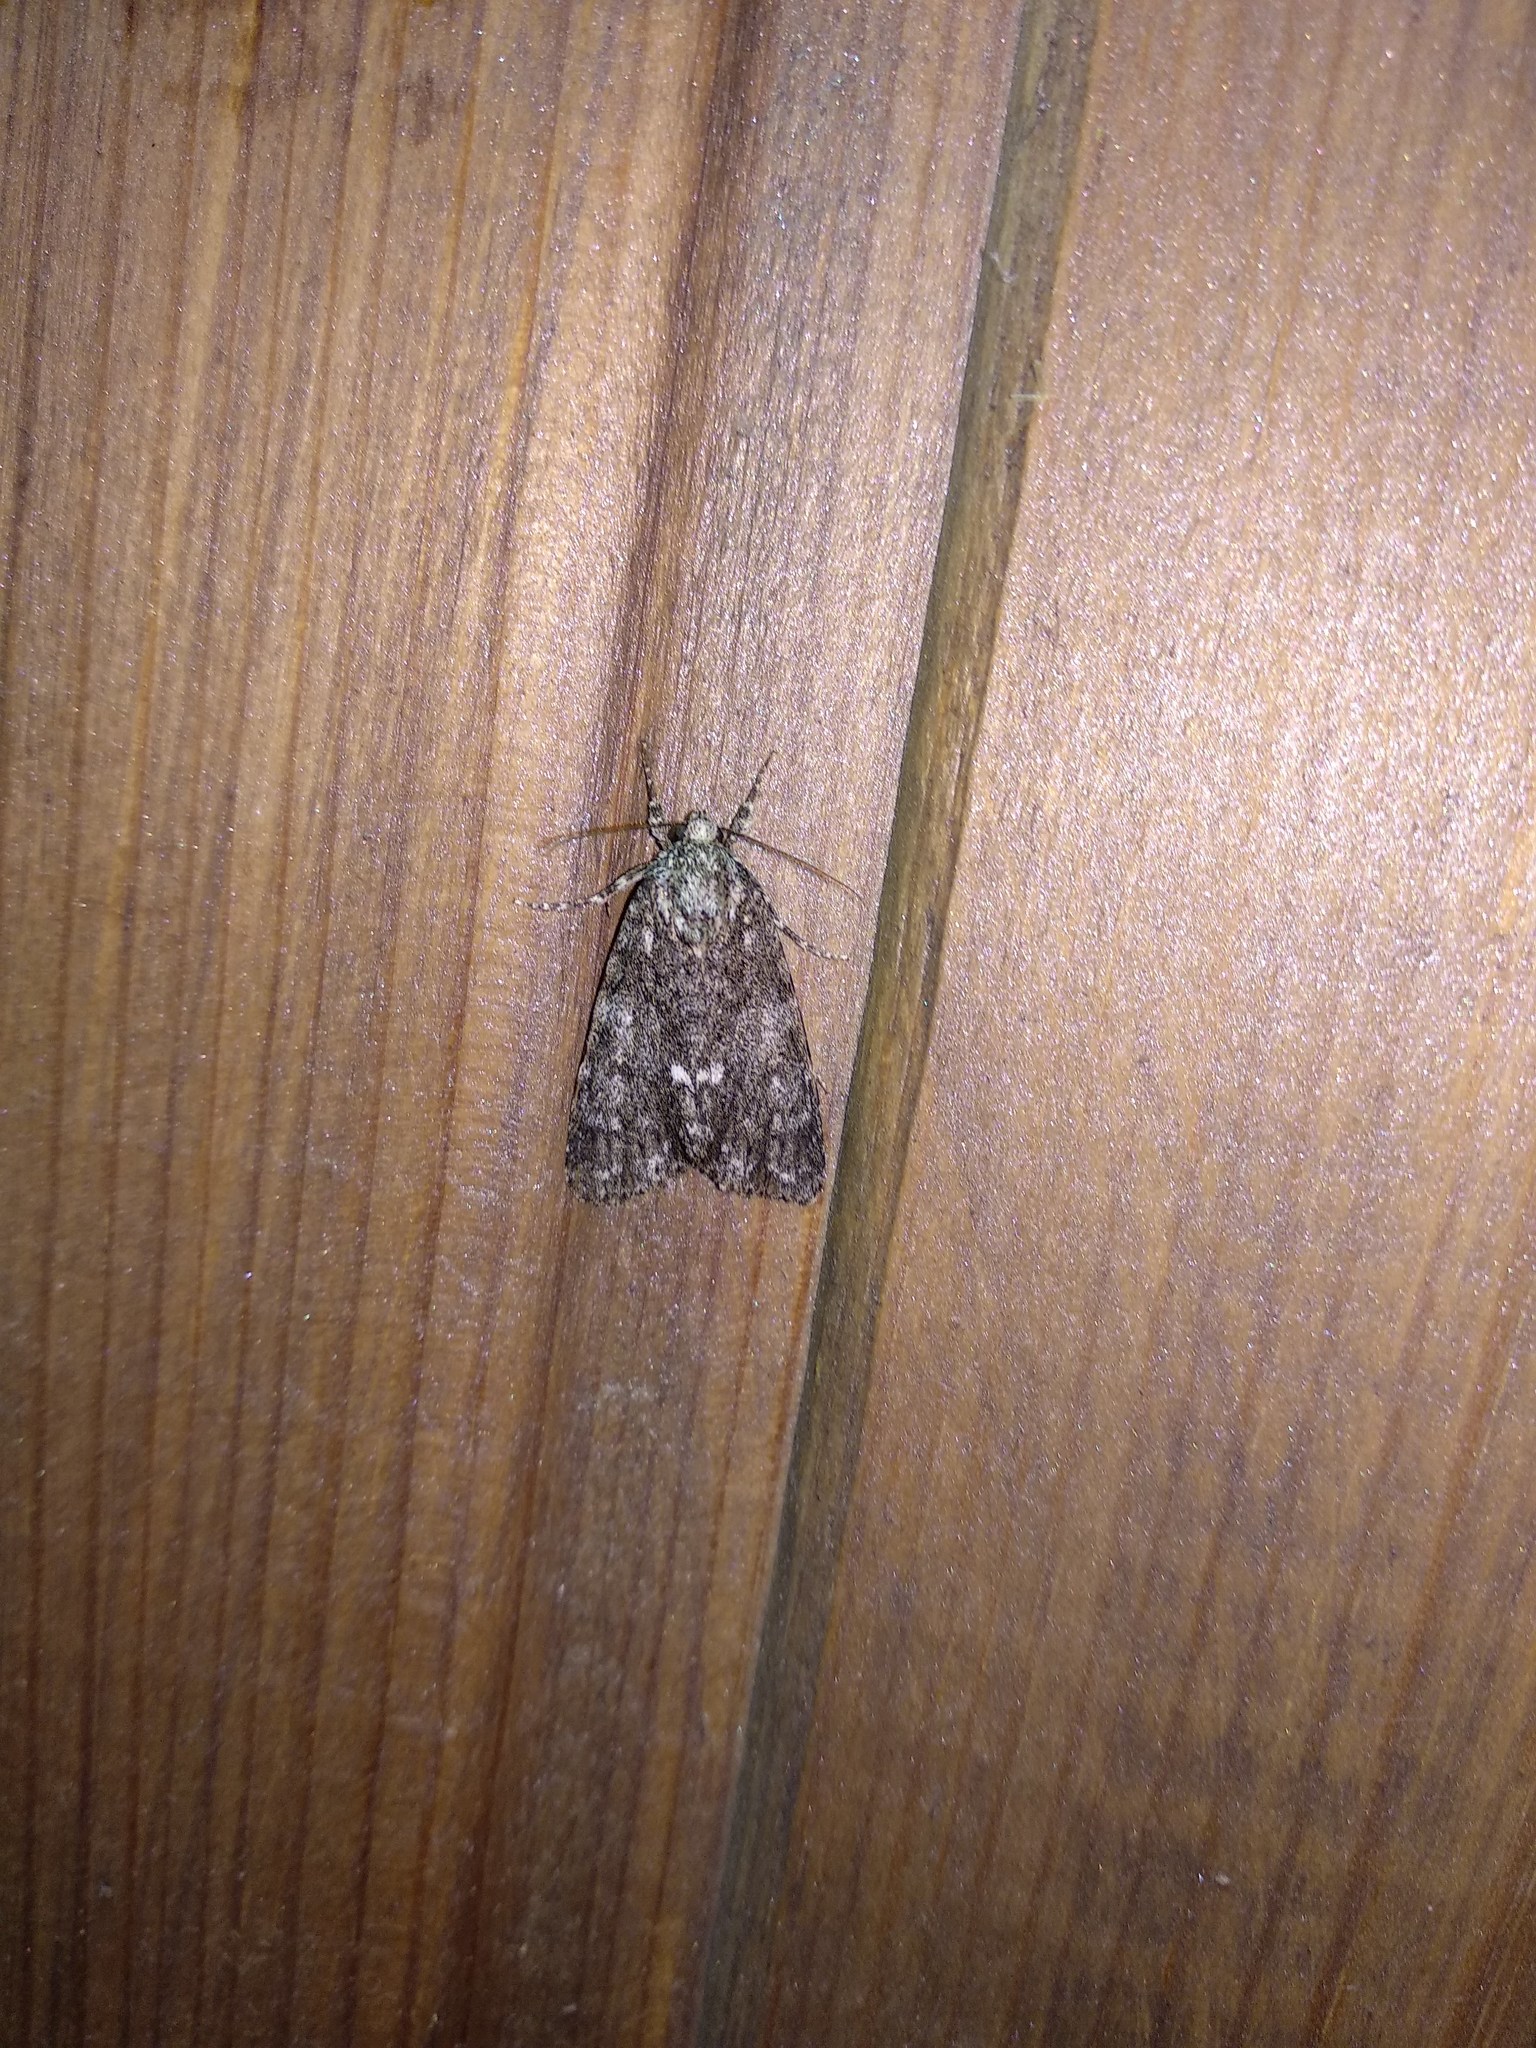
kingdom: Animalia
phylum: Arthropoda
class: Insecta
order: Lepidoptera
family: Noctuidae
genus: Acronicta
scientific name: Acronicta rumicis
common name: Knot grass
